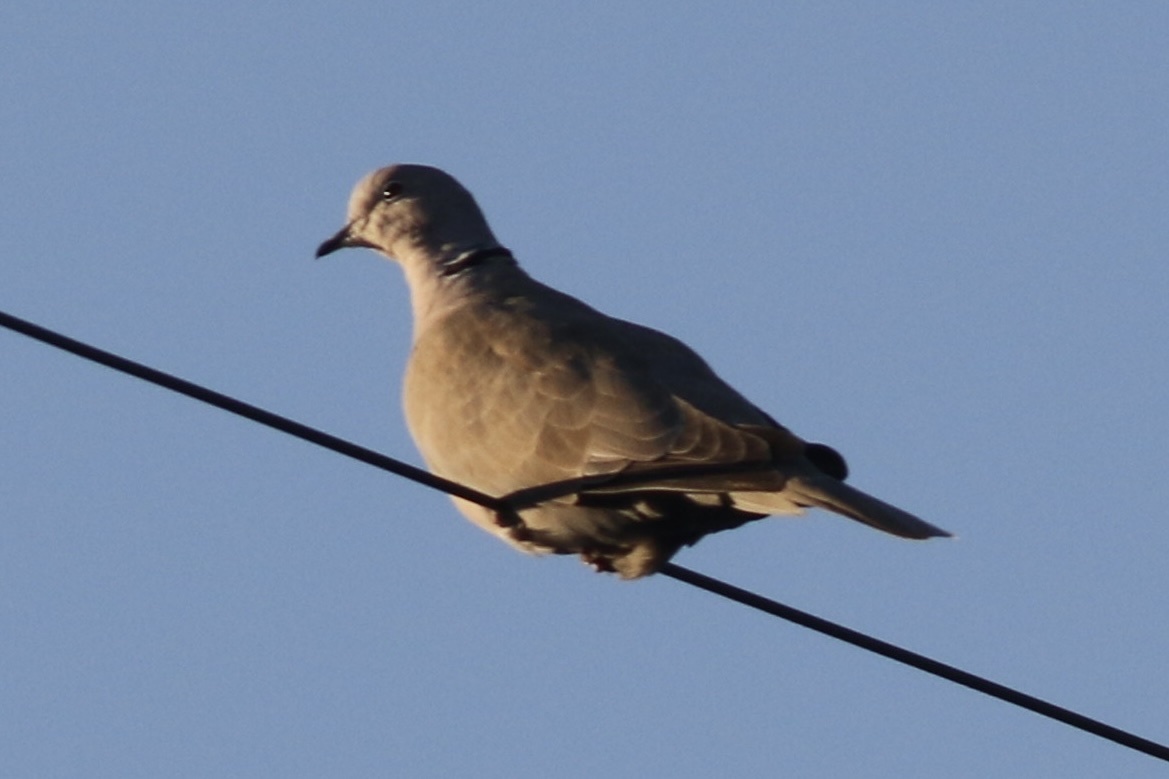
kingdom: Animalia
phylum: Chordata
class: Aves
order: Columbiformes
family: Columbidae
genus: Streptopelia
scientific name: Streptopelia decaocto
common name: Eurasian collared dove
